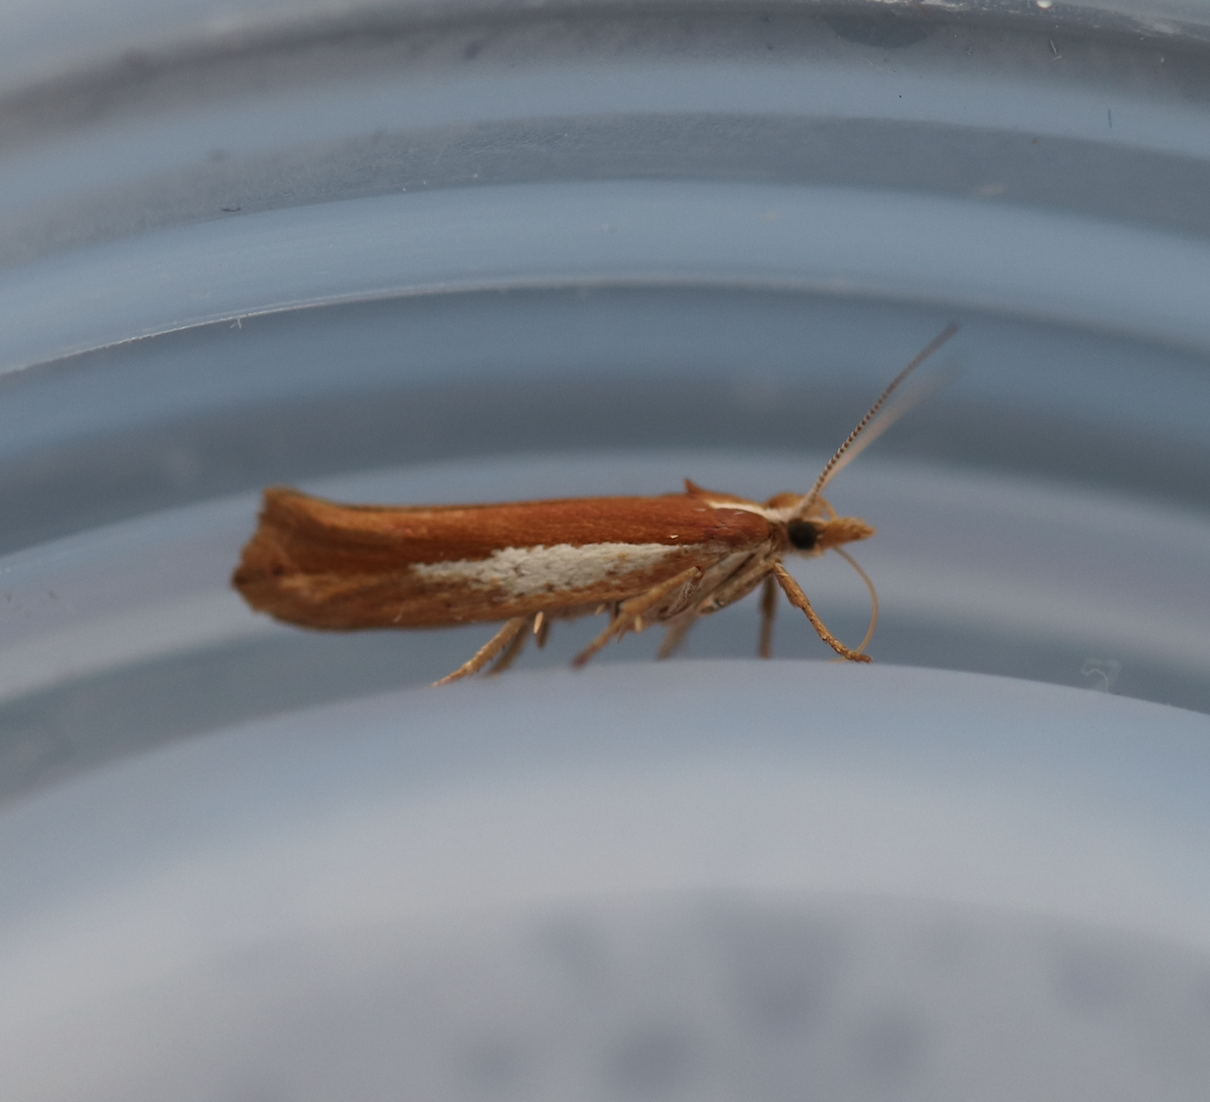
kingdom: Animalia
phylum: Arthropoda
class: Insecta
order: Lepidoptera
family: Ypsolophidae
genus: Ypsolopha
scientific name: Ypsolopha parenthesella
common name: White-shouldered smudge
